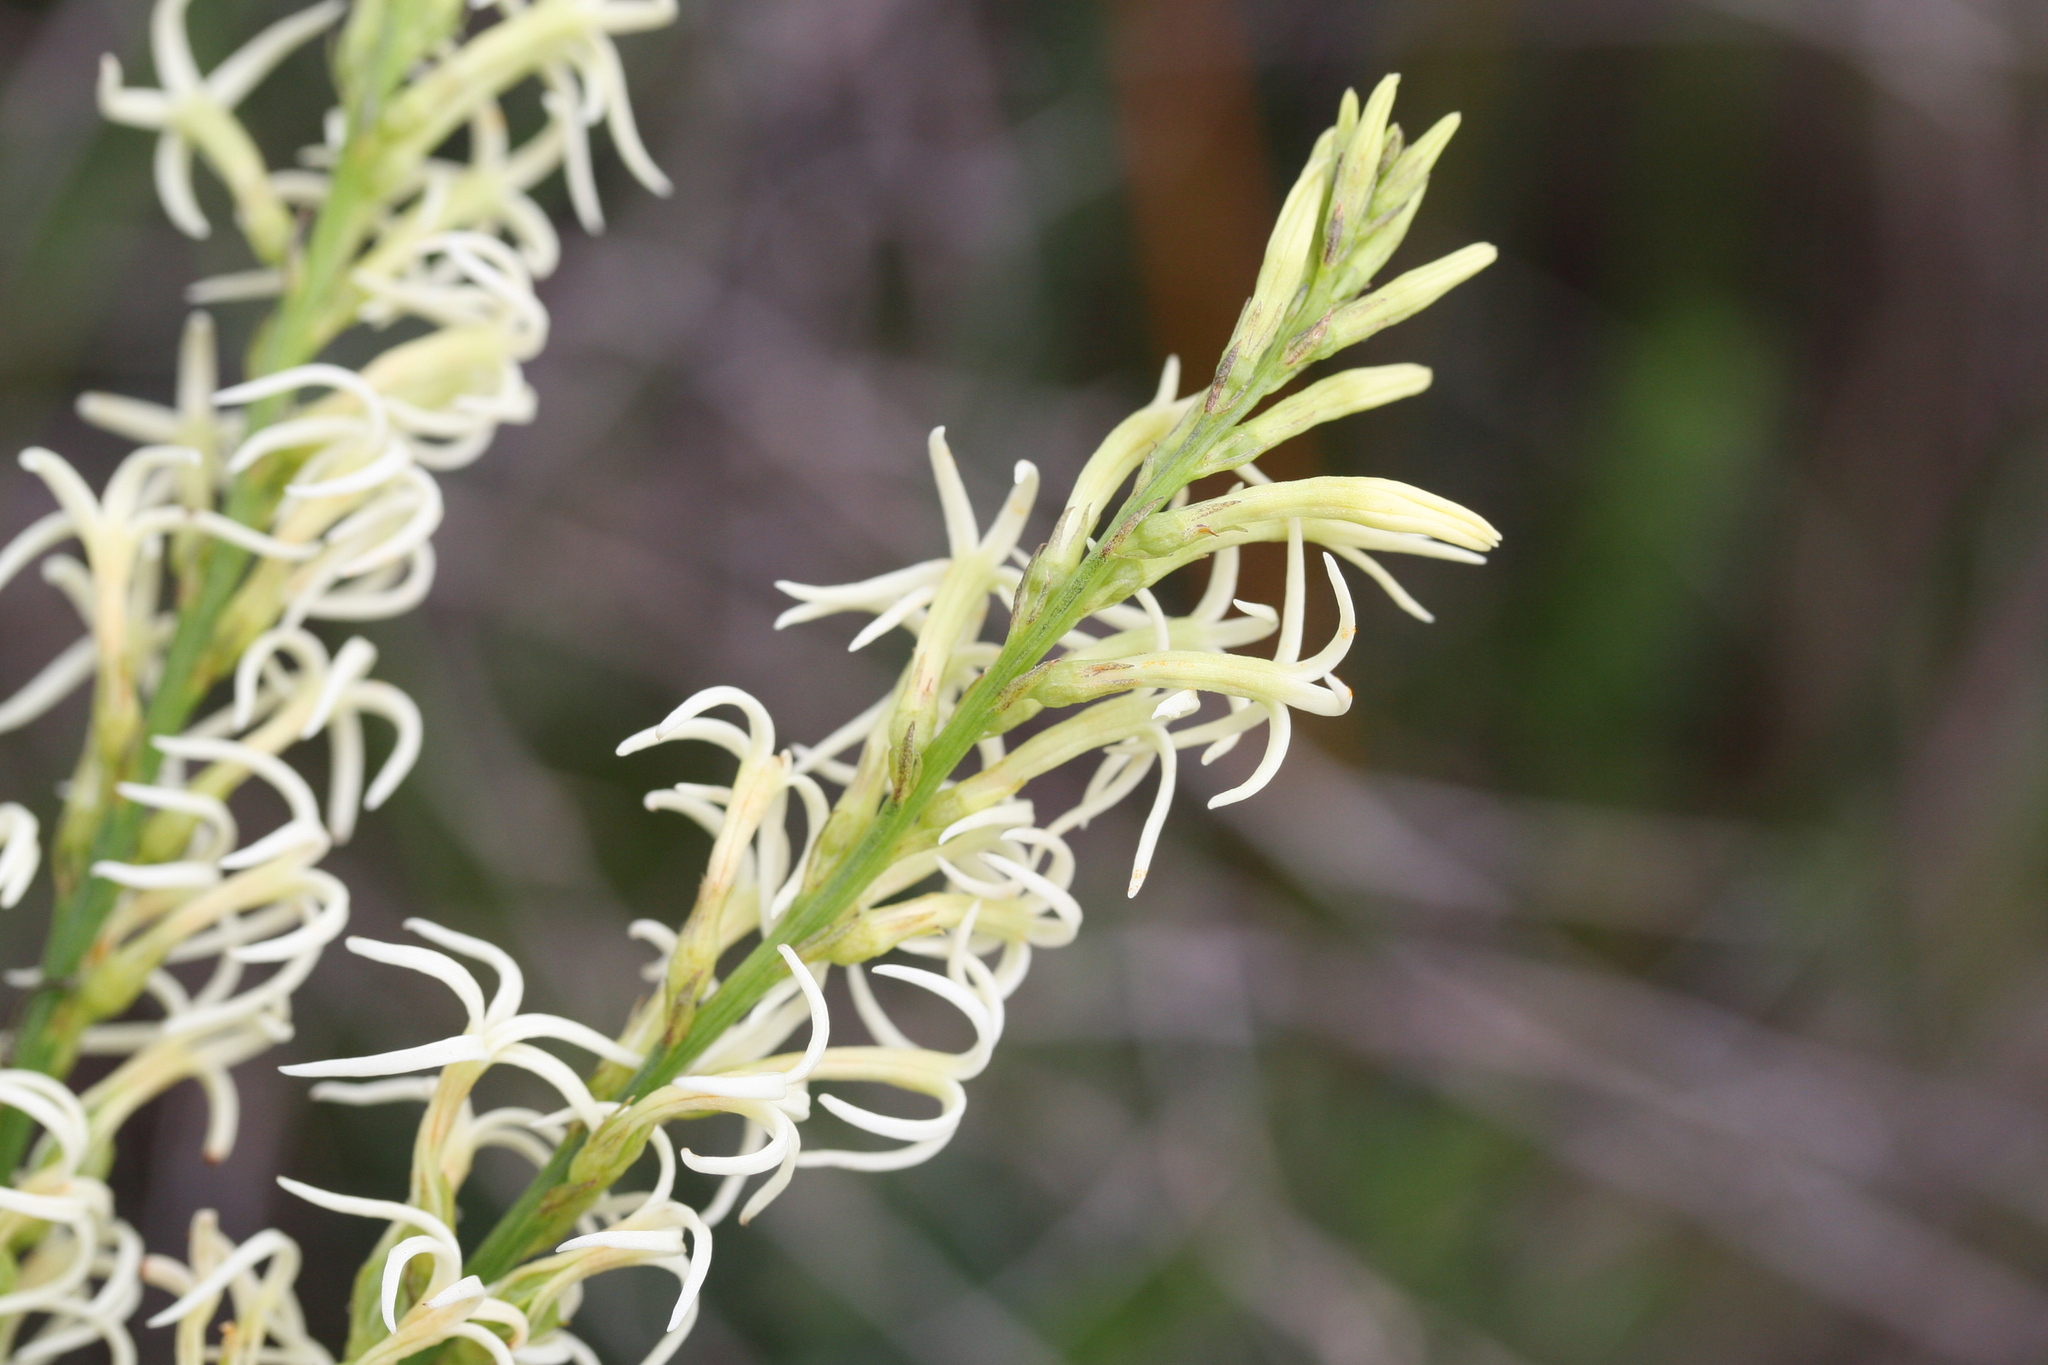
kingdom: Plantae
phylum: Tracheophyta
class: Magnoliopsida
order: Celastrales
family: Celastraceae
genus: Tripterococcus
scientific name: Tripterococcus brunonis
